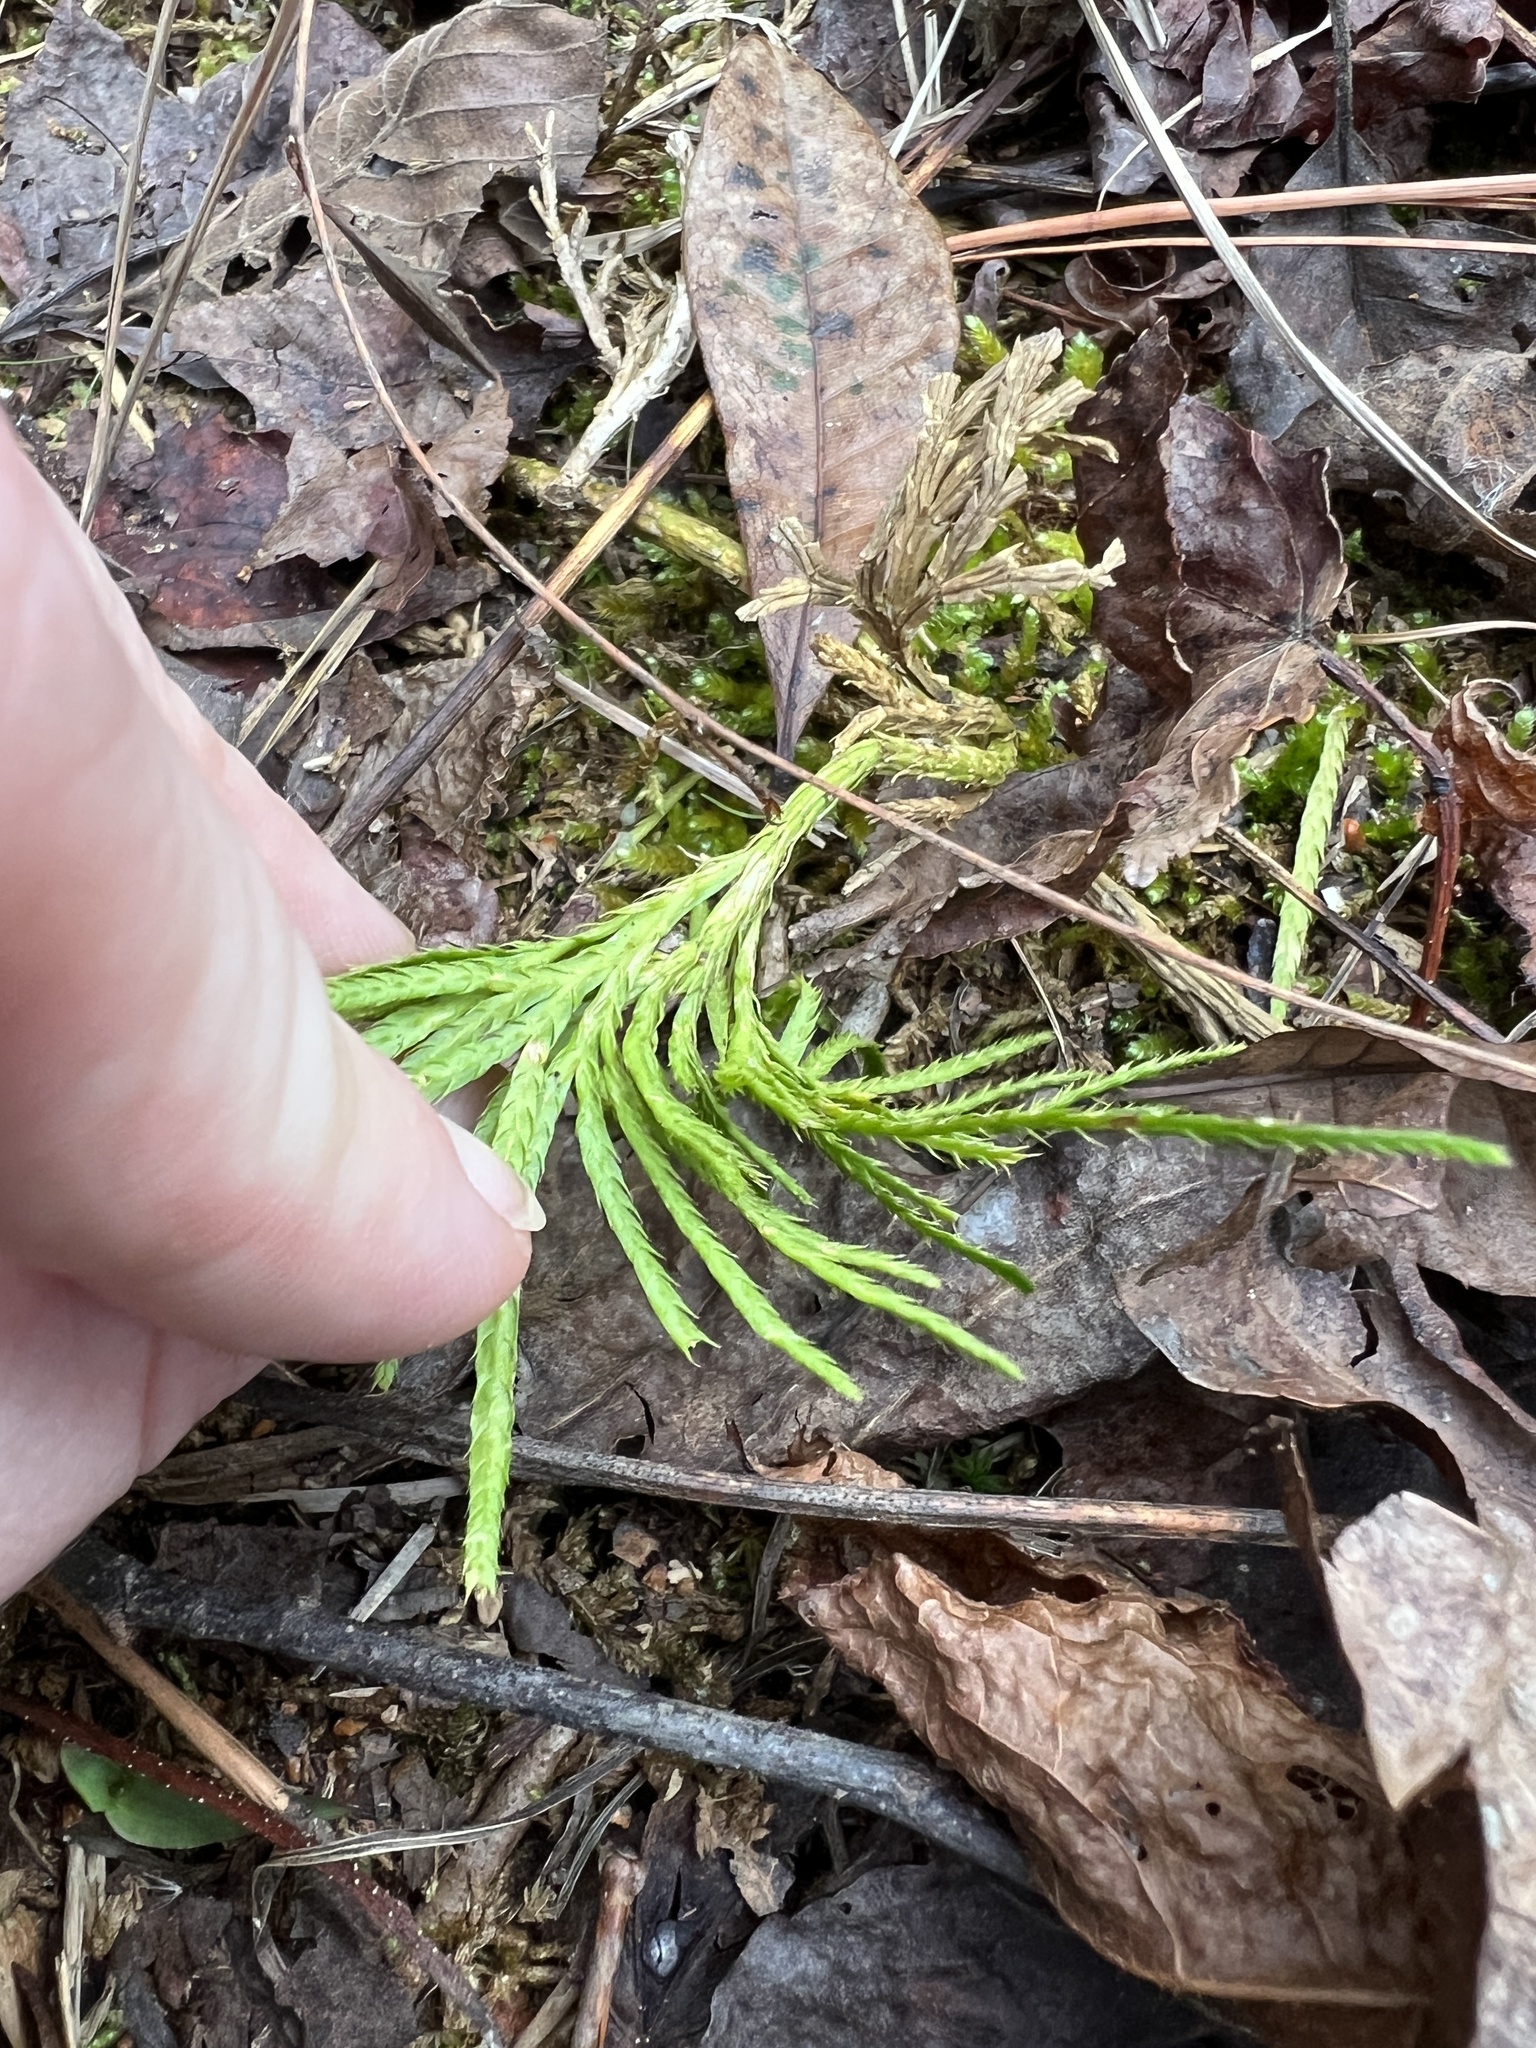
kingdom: Plantae
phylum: Tracheophyta
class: Lycopodiopsida
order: Lycopodiales
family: Lycopodiaceae
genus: Diphasiastrum
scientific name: Diphasiastrum digitatum
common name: Southern running-pine
